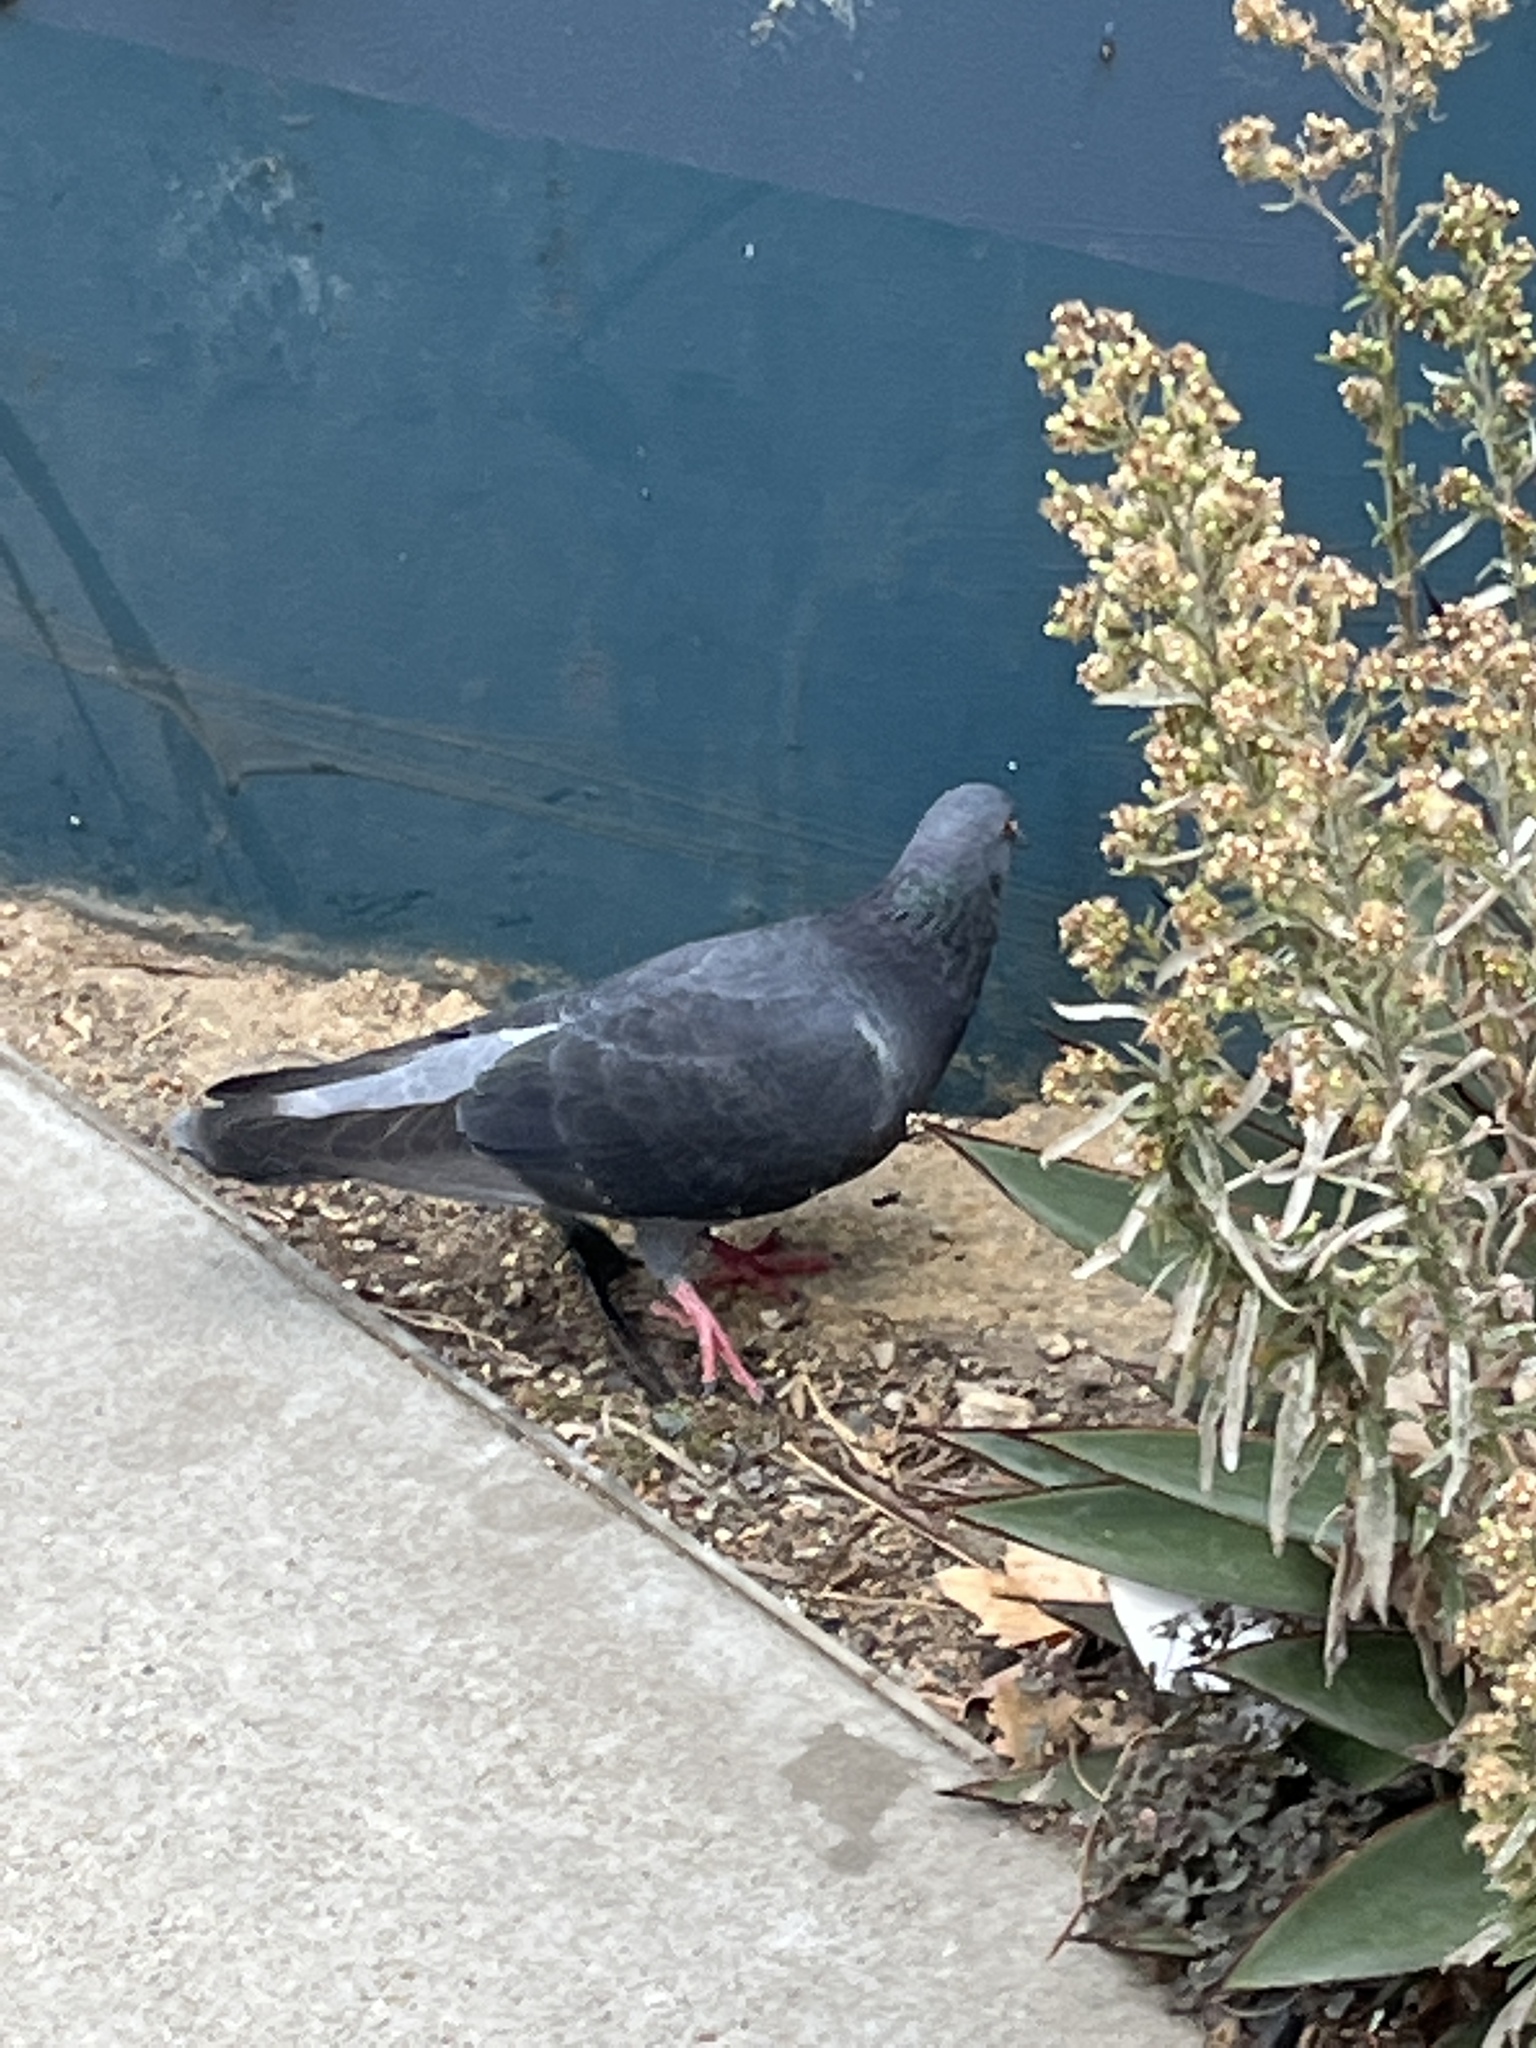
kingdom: Animalia
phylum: Chordata
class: Aves
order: Columbiformes
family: Columbidae
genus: Columba
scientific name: Columba livia
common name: Rock pigeon
